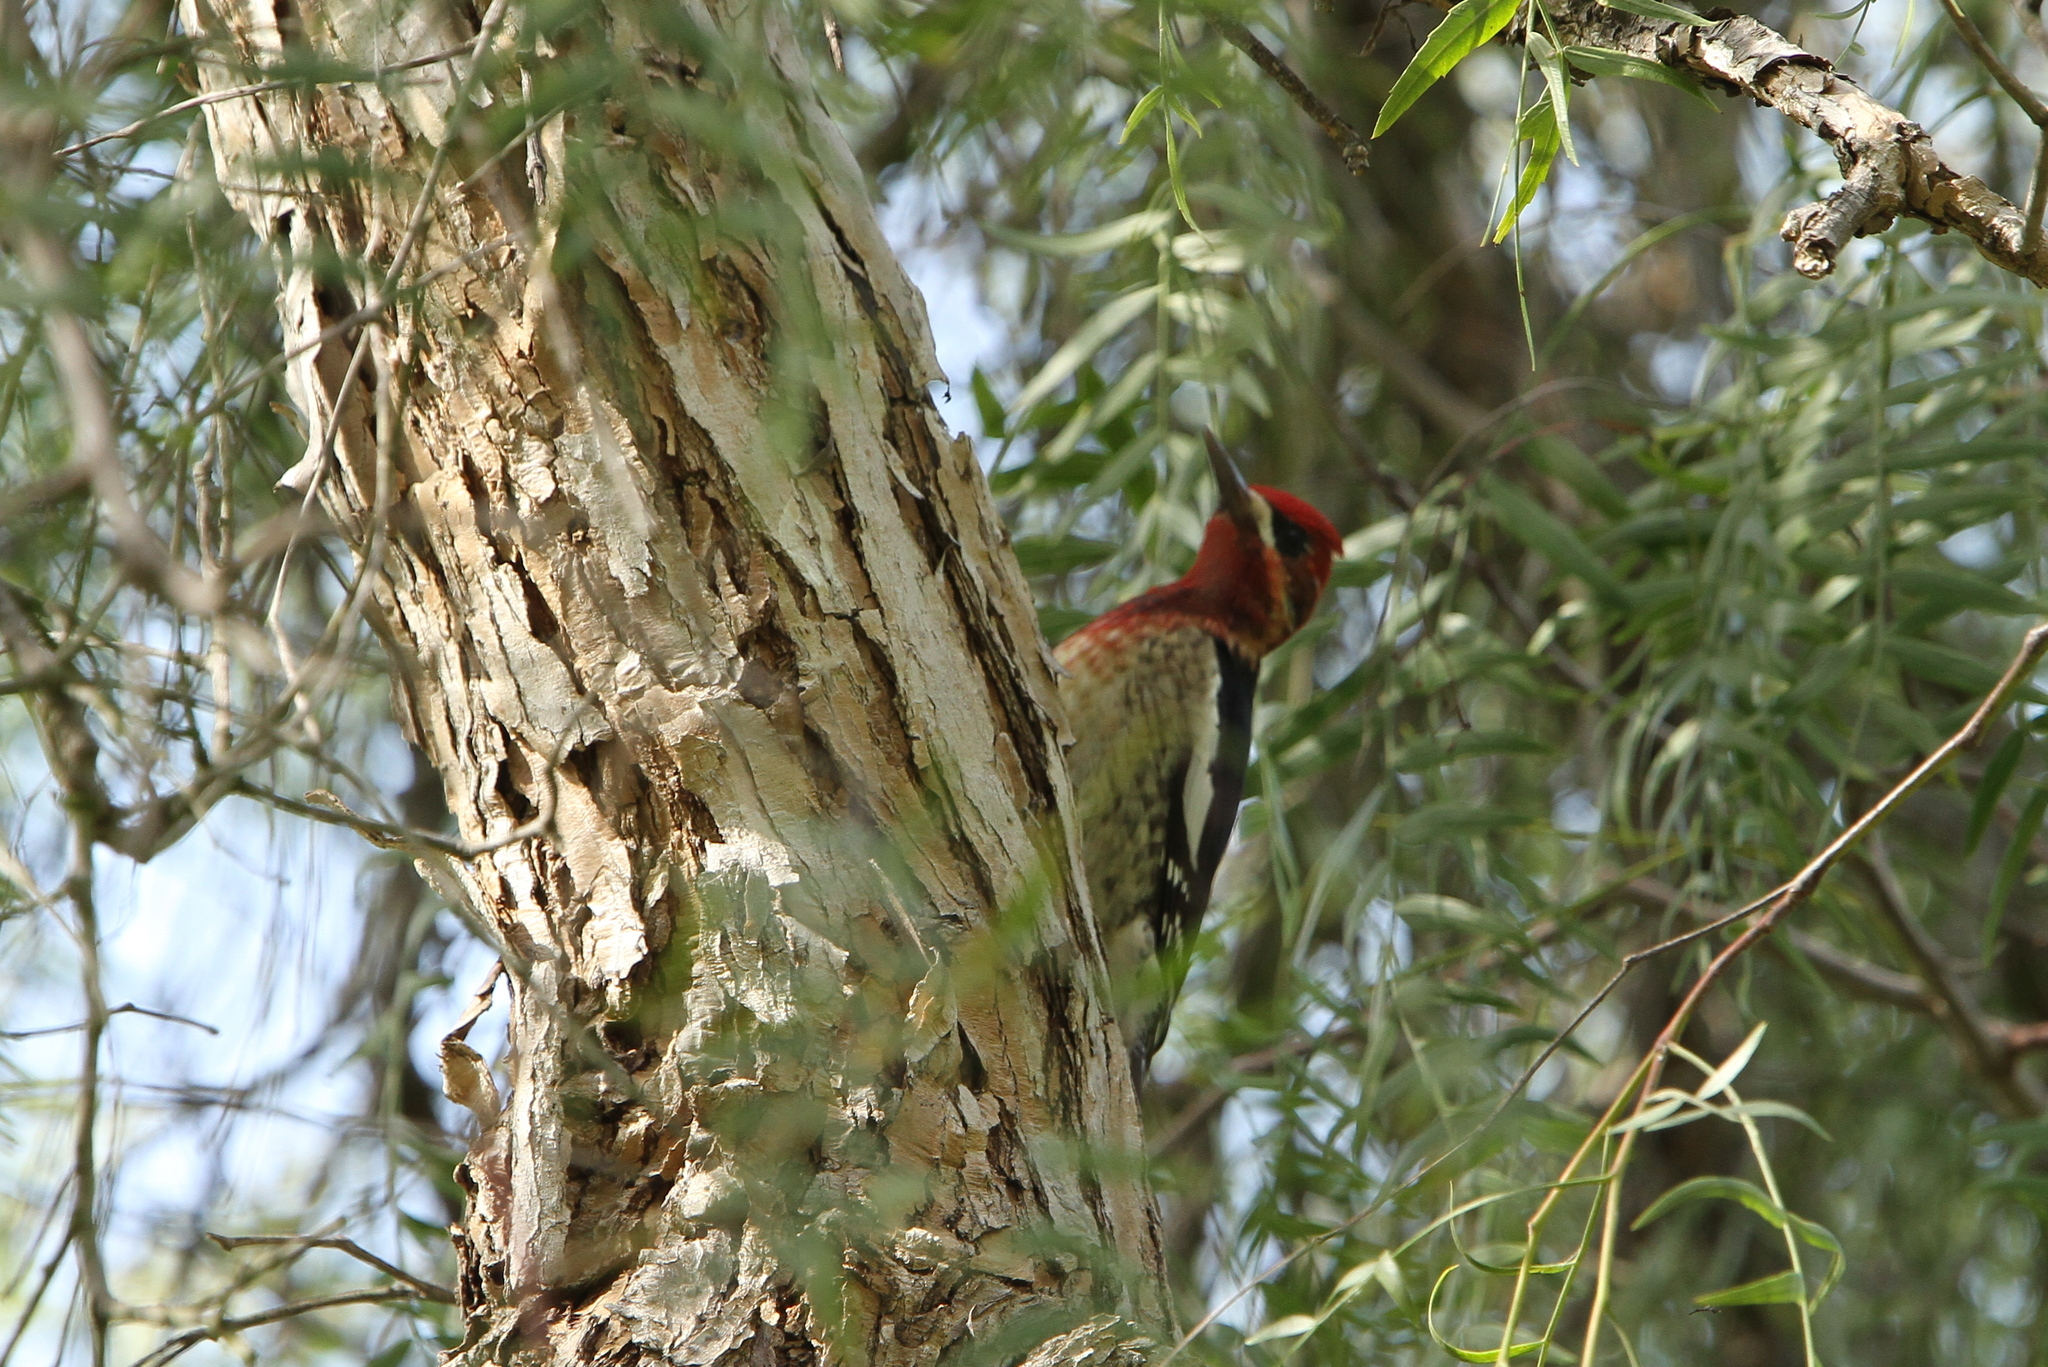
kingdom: Animalia
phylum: Chordata
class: Aves
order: Piciformes
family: Picidae
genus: Sphyrapicus
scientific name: Sphyrapicus ruber
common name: Red-breasted sapsucker
